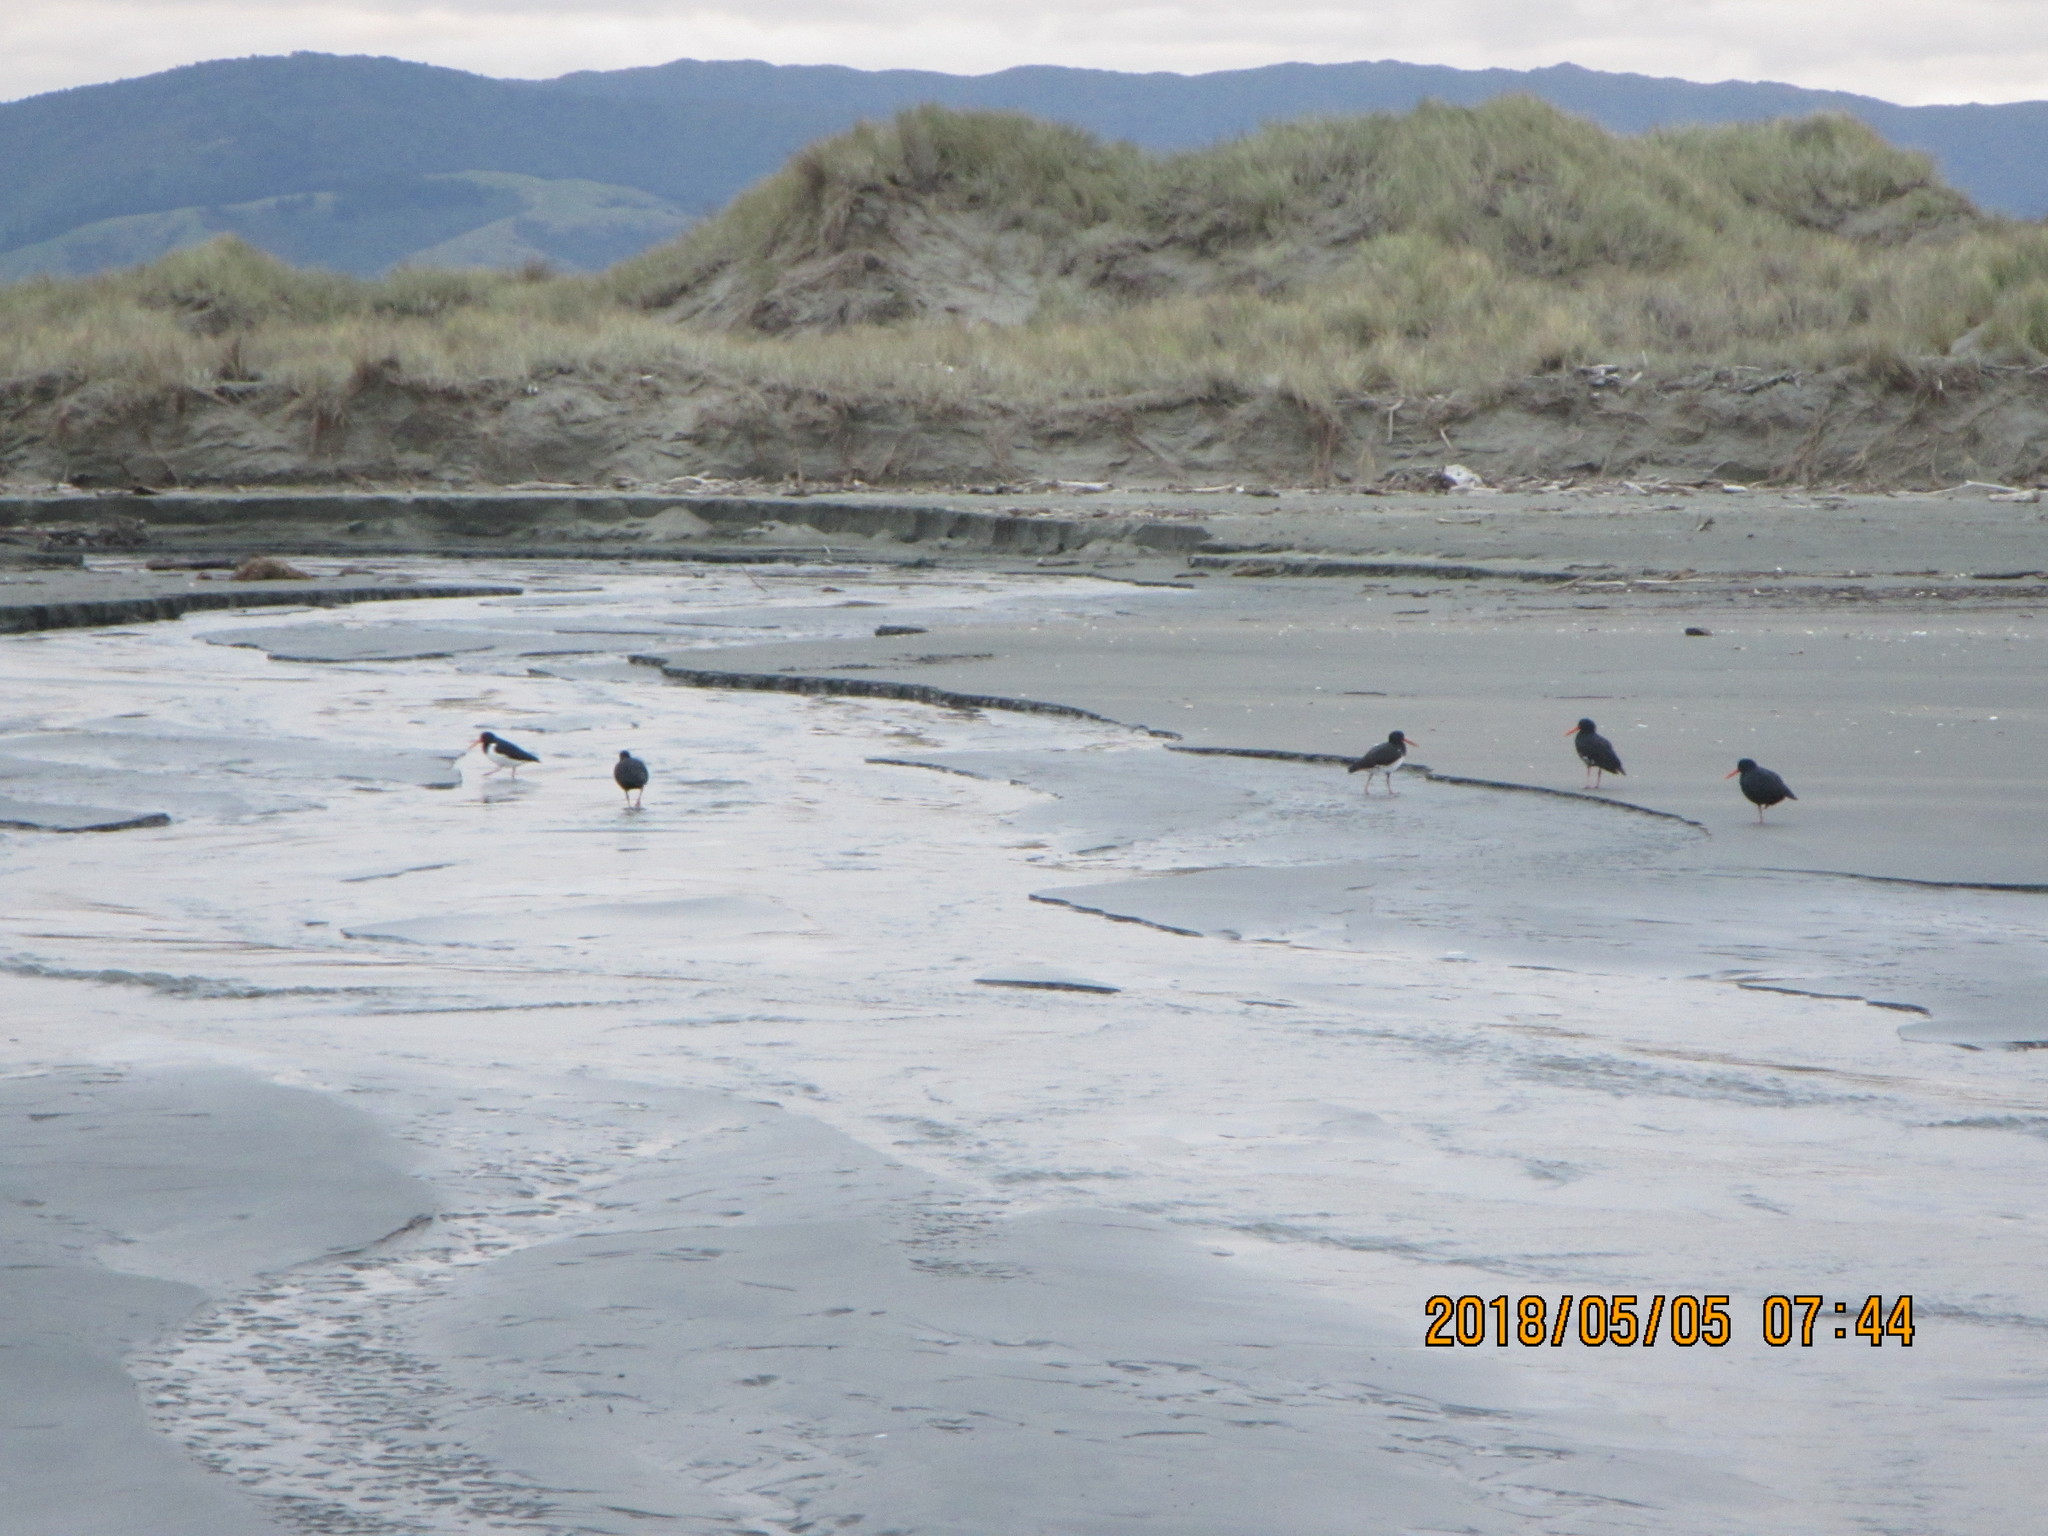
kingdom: Animalia
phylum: Chordata
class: Aves
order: Charadriiformes
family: Haematopodidae
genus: Haematopus
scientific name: Haematopus finschi
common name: South island oystercatcher
